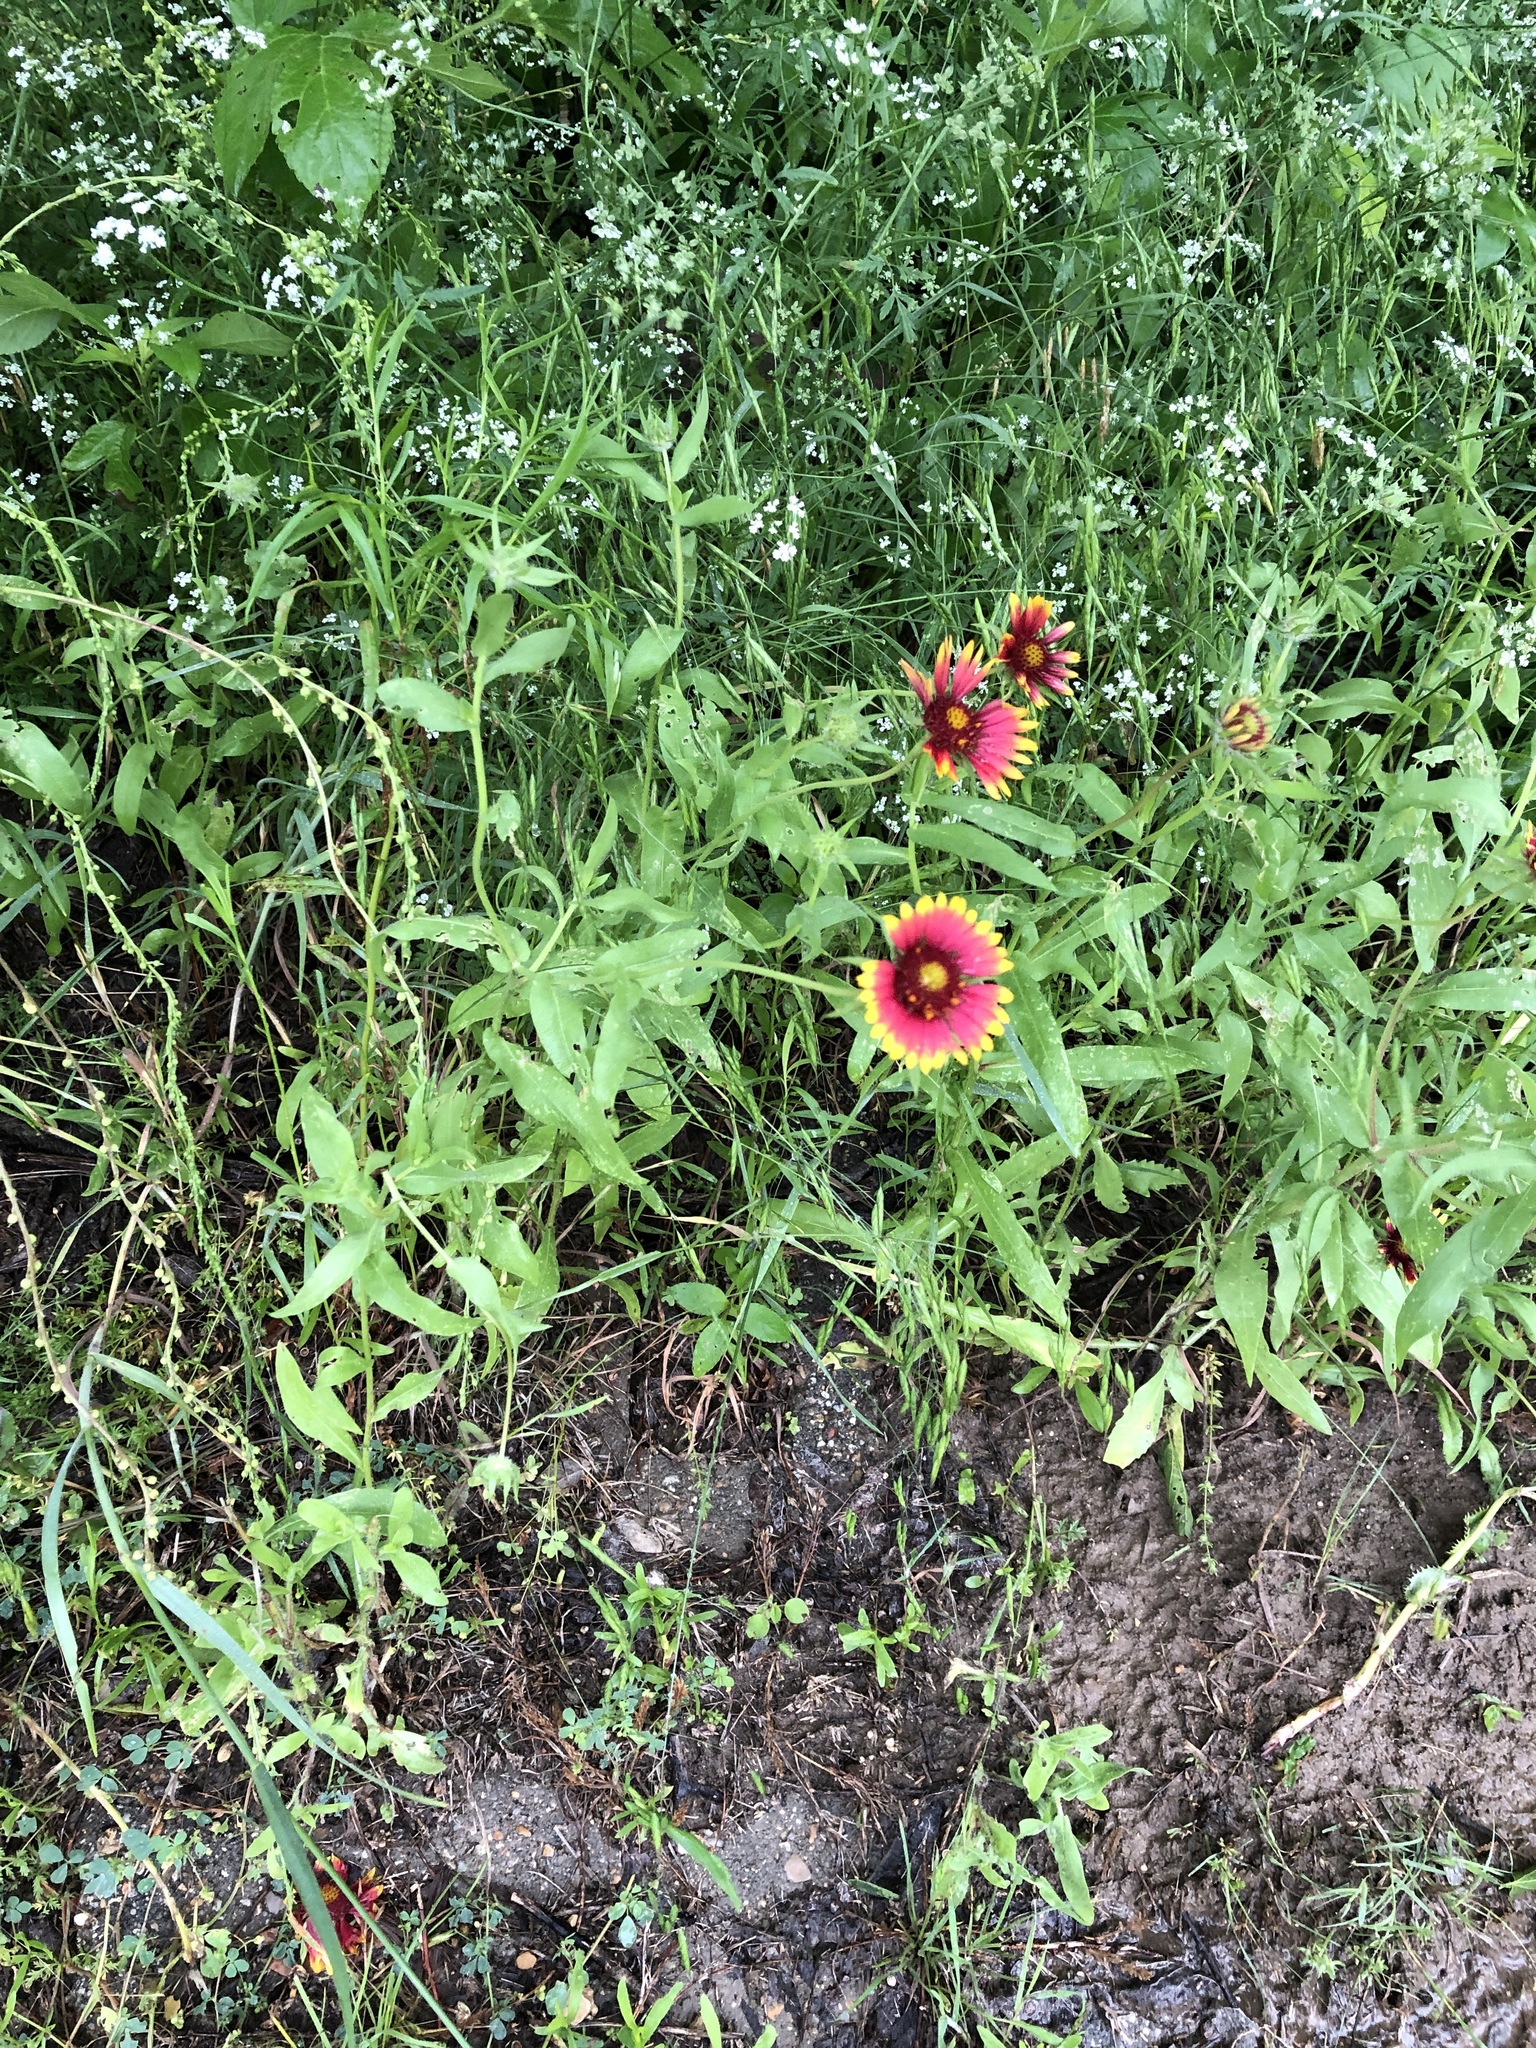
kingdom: Plantae
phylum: Tracheophyta
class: Magnoliopsida
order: Asterales
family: Asteraceae
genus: Gaillardia
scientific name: Gaillardia pulchella
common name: Firewheel
